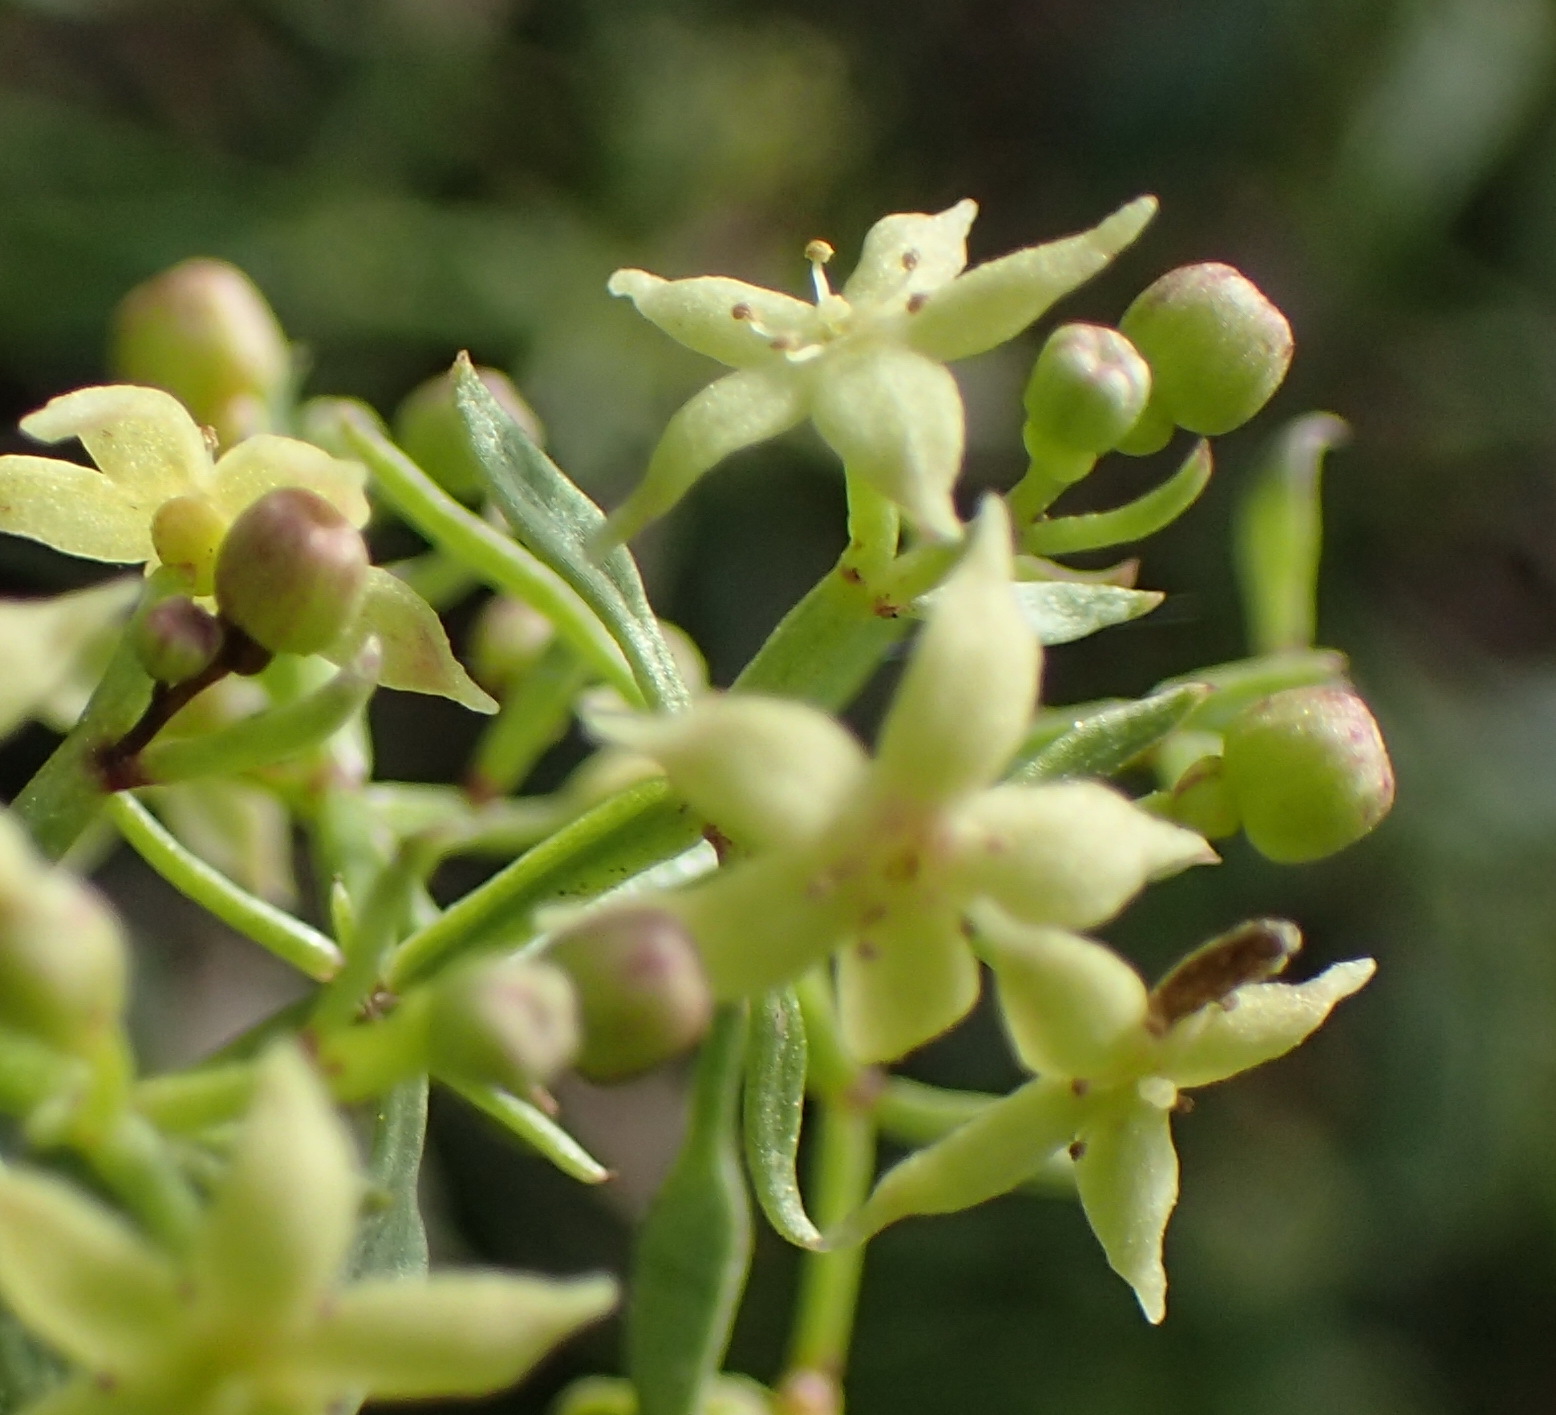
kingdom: Plantae
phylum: Tracheophyta
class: Magnoliopsida
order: Gentianales
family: Rubiaceae
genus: Galium
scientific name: Galium capense
